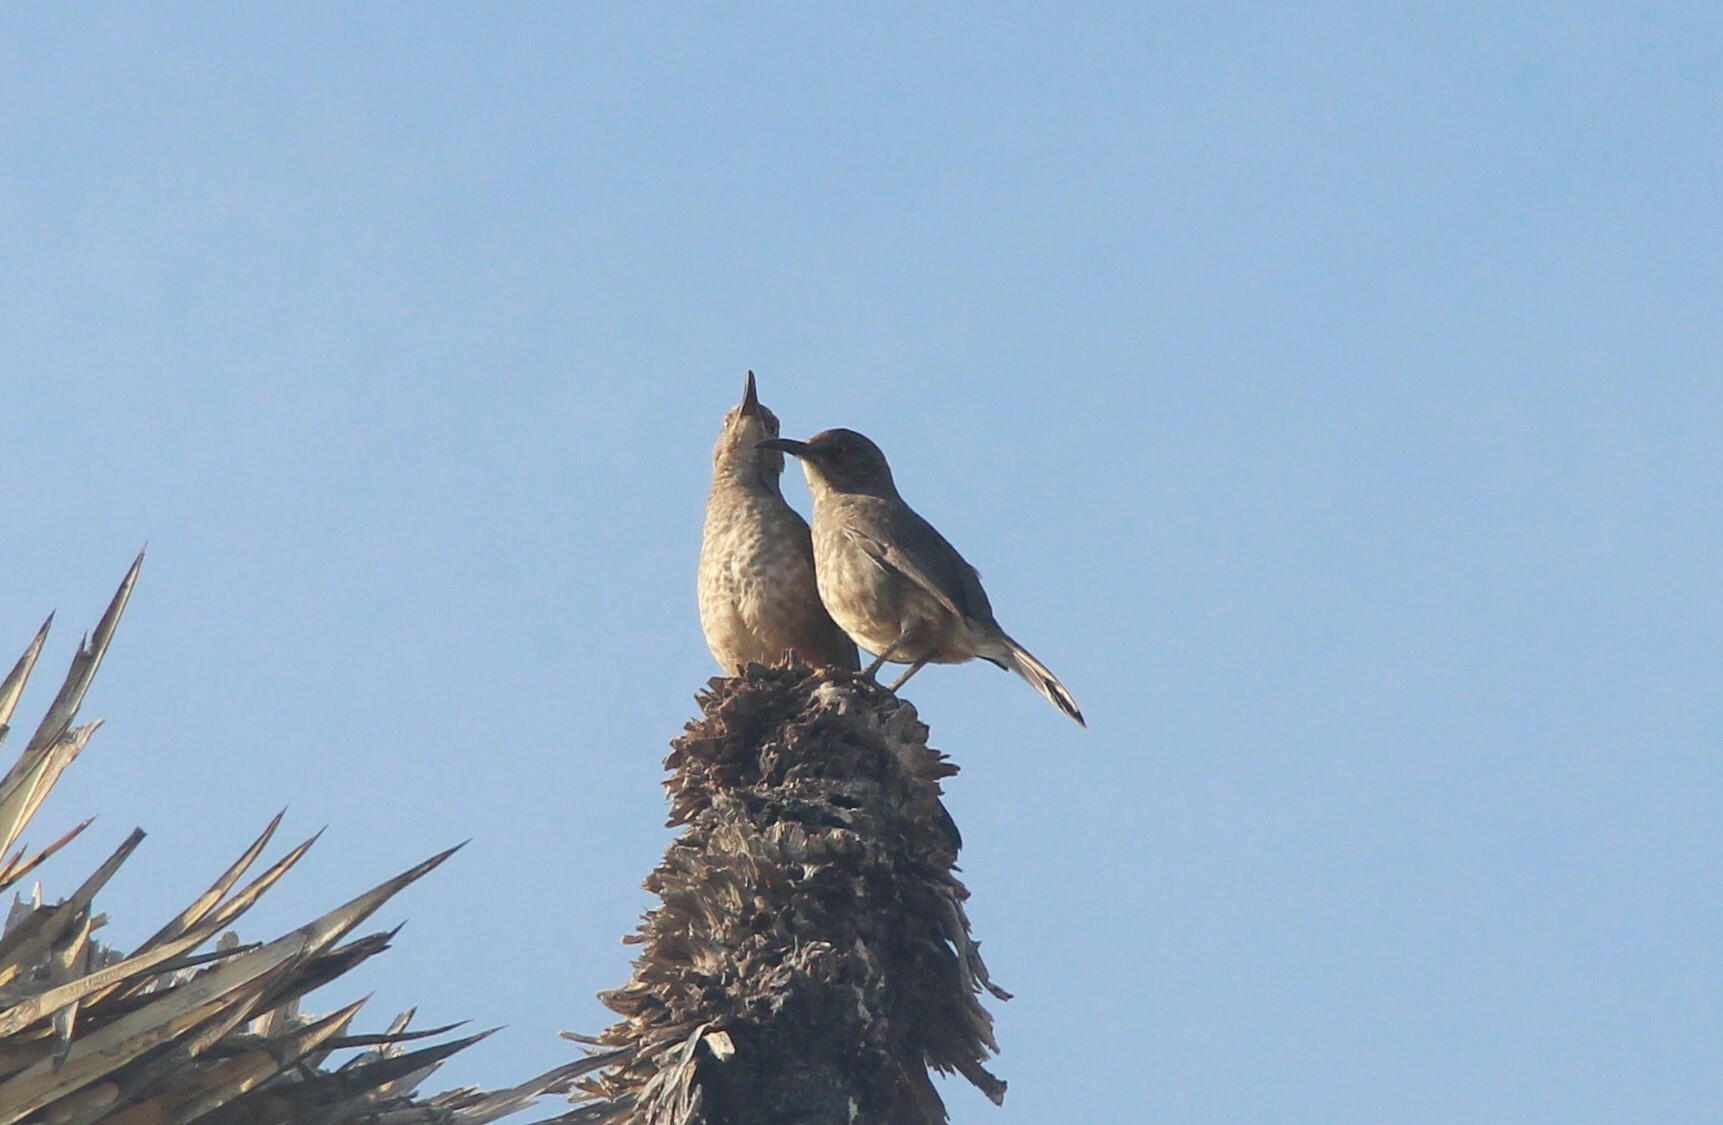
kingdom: Animalia
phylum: Chordata
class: Aves
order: Passeriformes
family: Mimidae
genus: Toxostoma
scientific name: Toxostoma curvirostre
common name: Curve-billed thrasher
